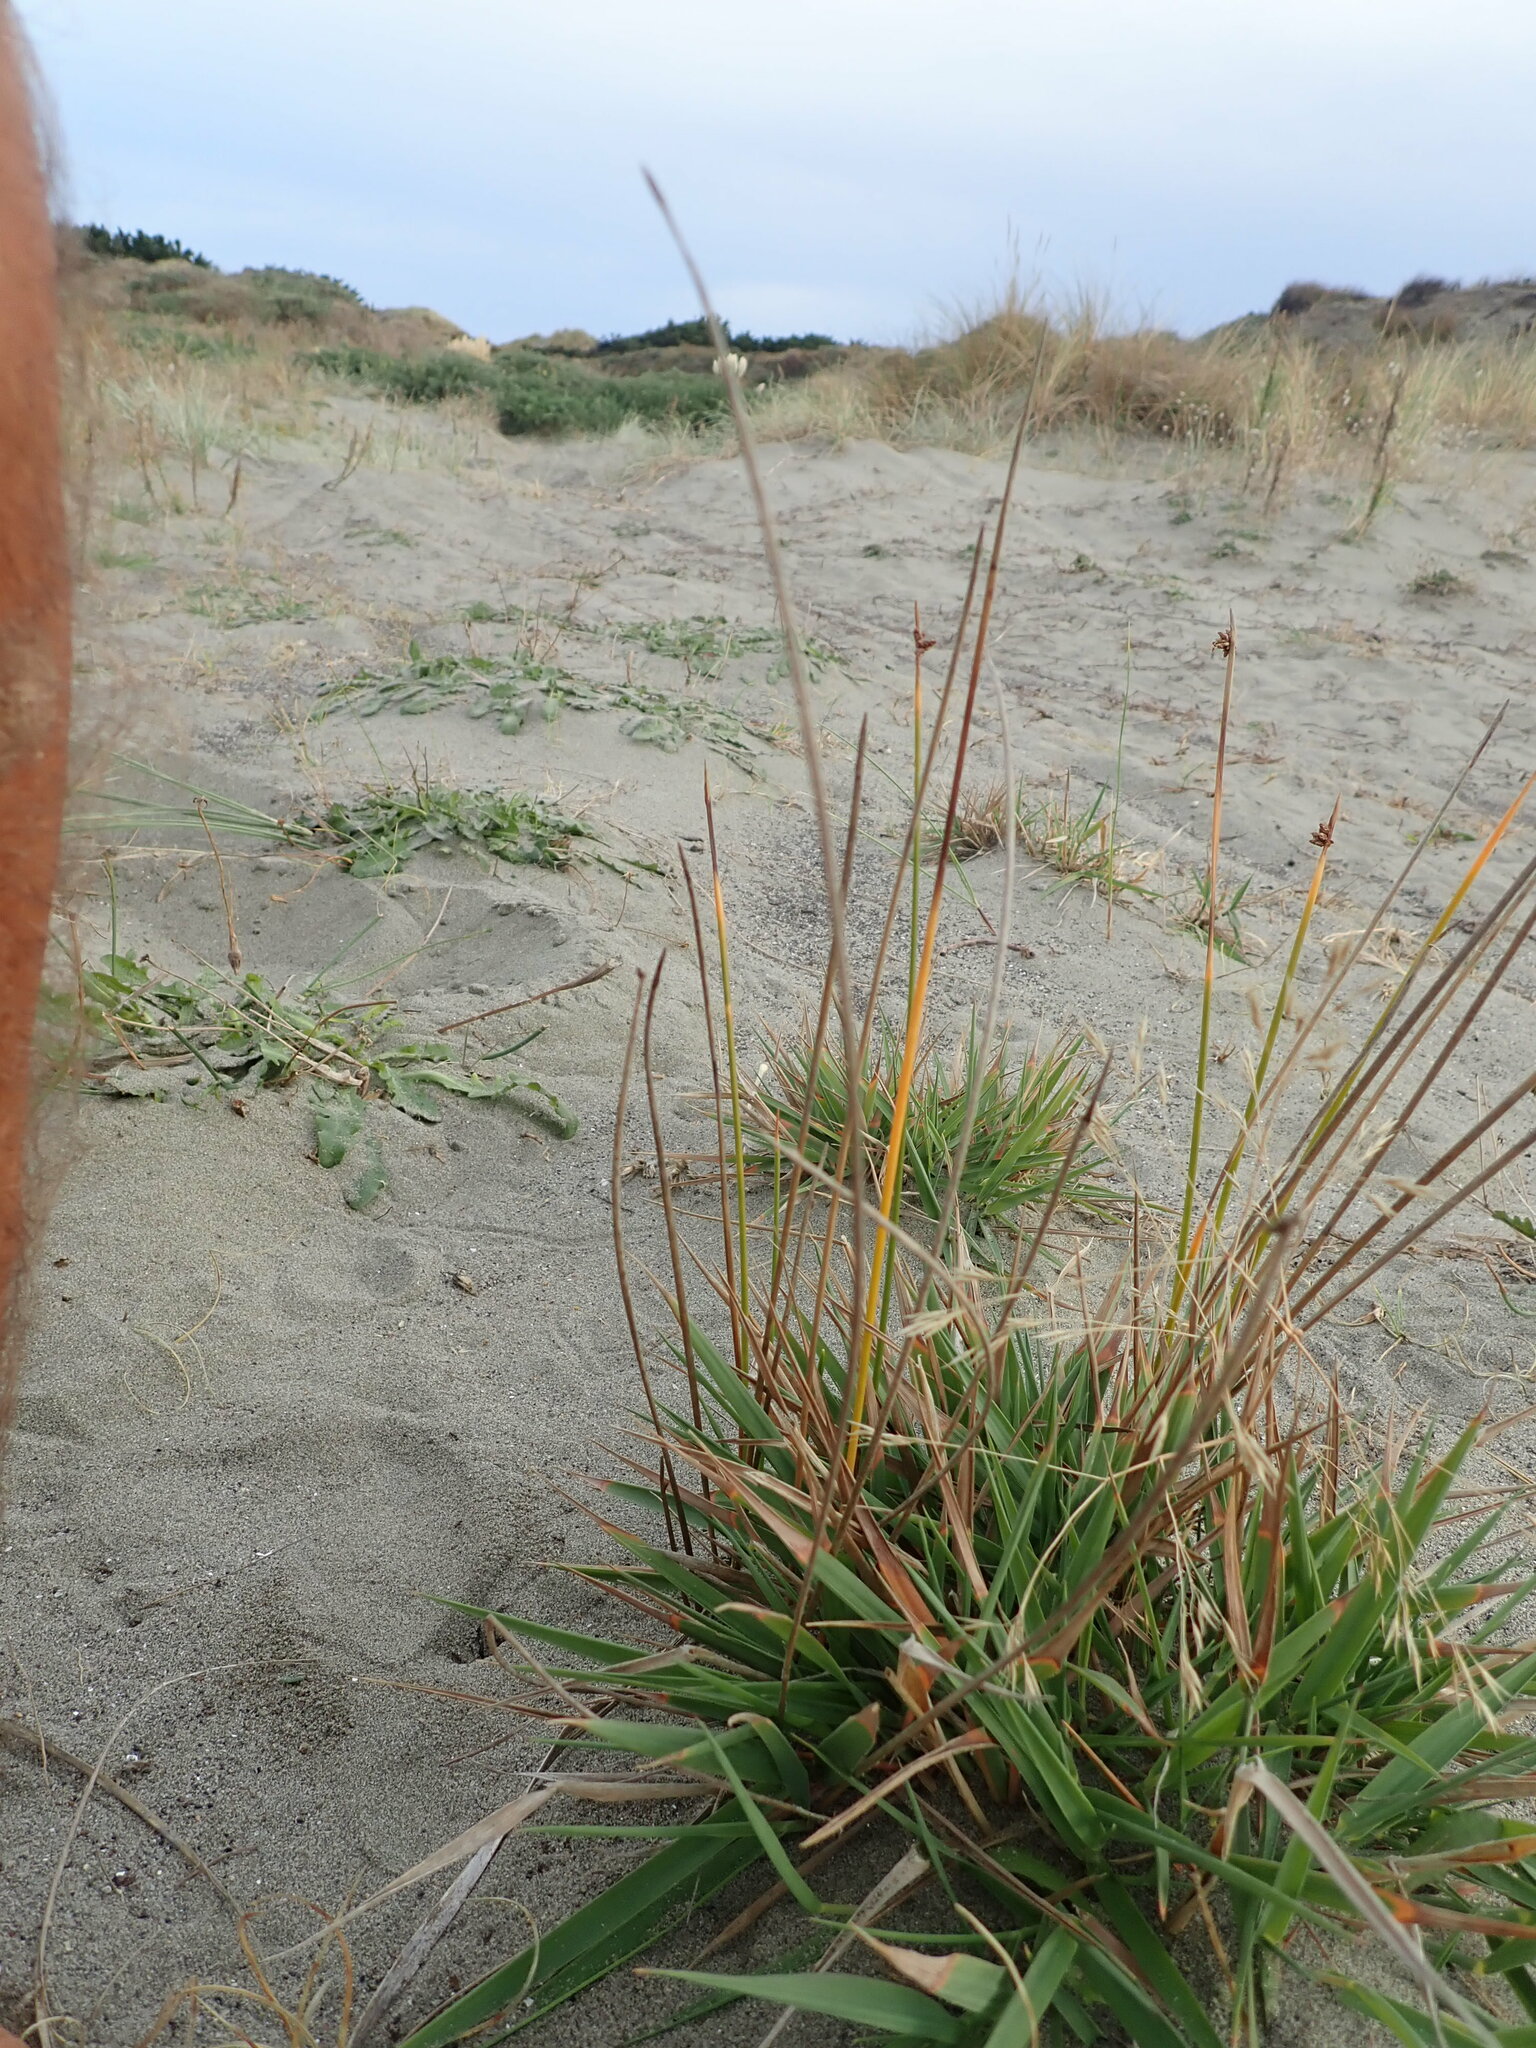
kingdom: Plantae
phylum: Tracheophyta
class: Liliopsida
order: Poales
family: Poaceae
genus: Lachnagrostis
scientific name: Lachnagrostis billardierei
